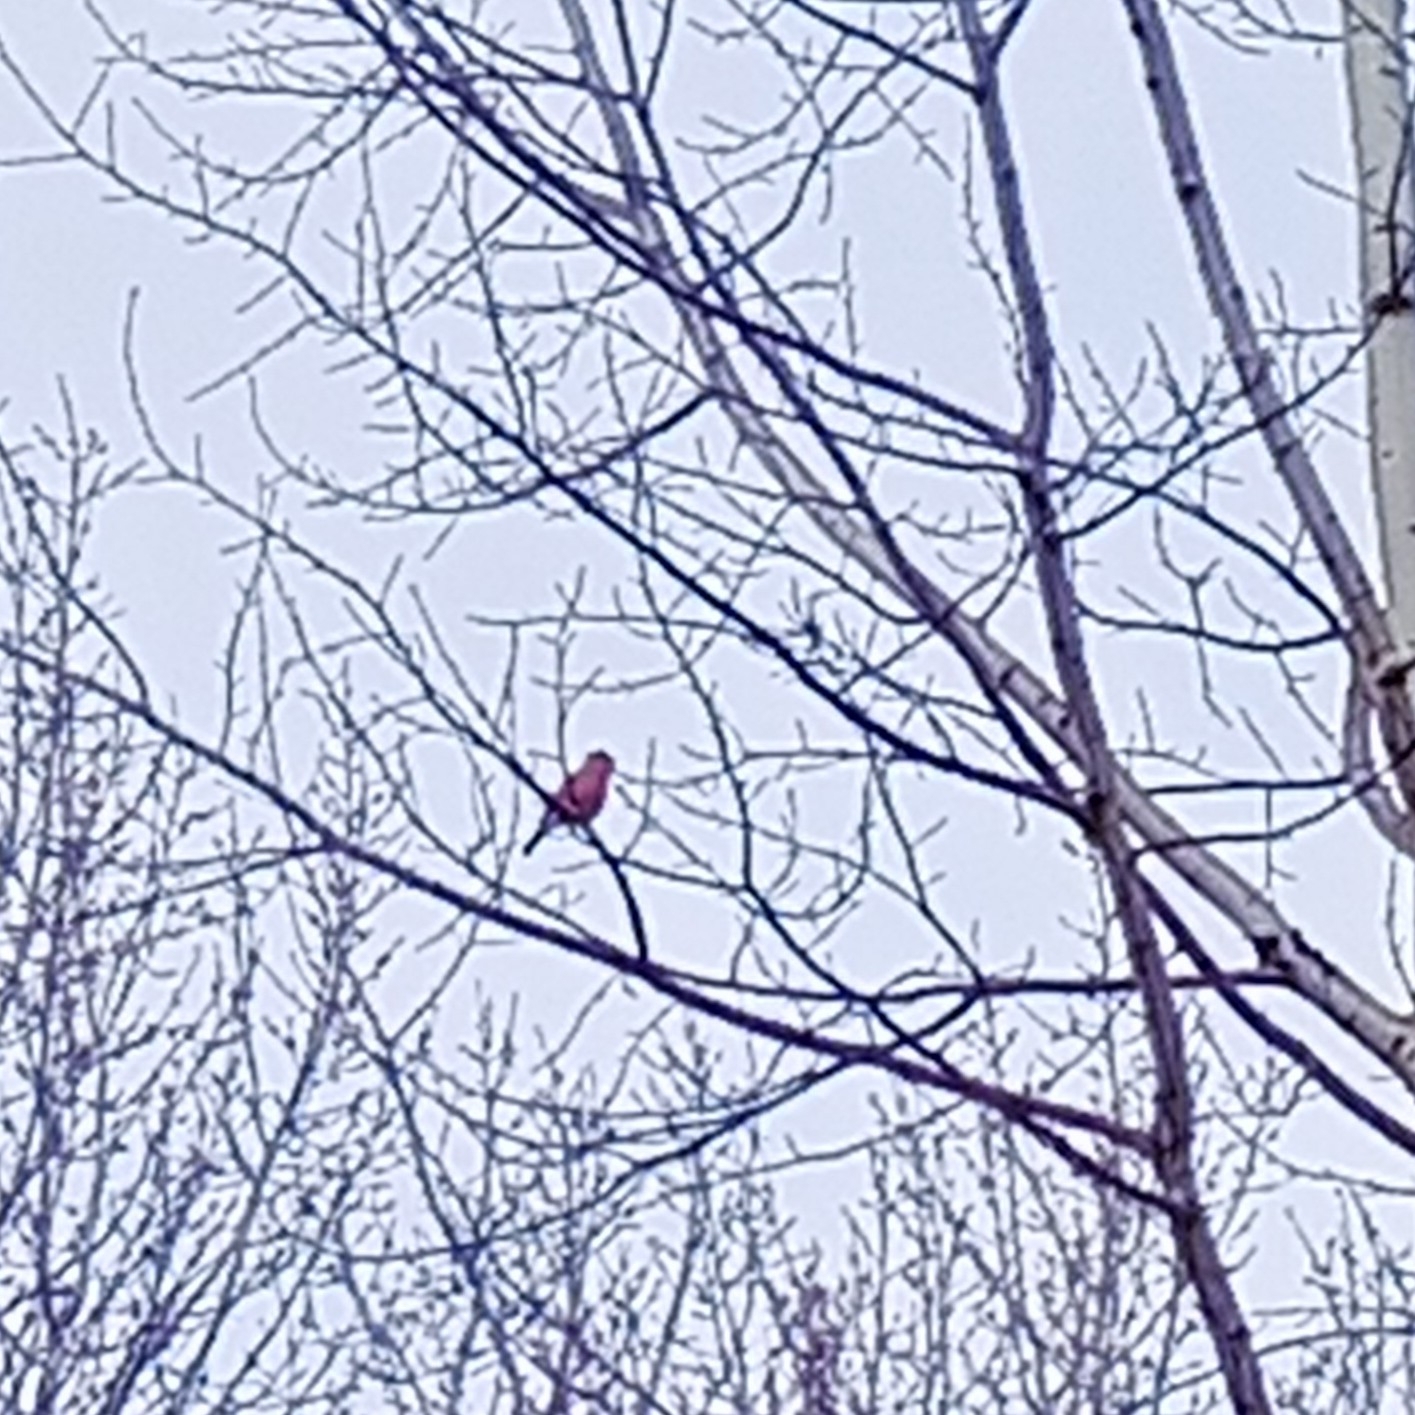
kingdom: Animalia
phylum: Chordata
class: Aves
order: Passeriformes
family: Fringillidae
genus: Pyrrhula
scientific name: Pyrrhula pyrrhula
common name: Eurasian bullfinch
